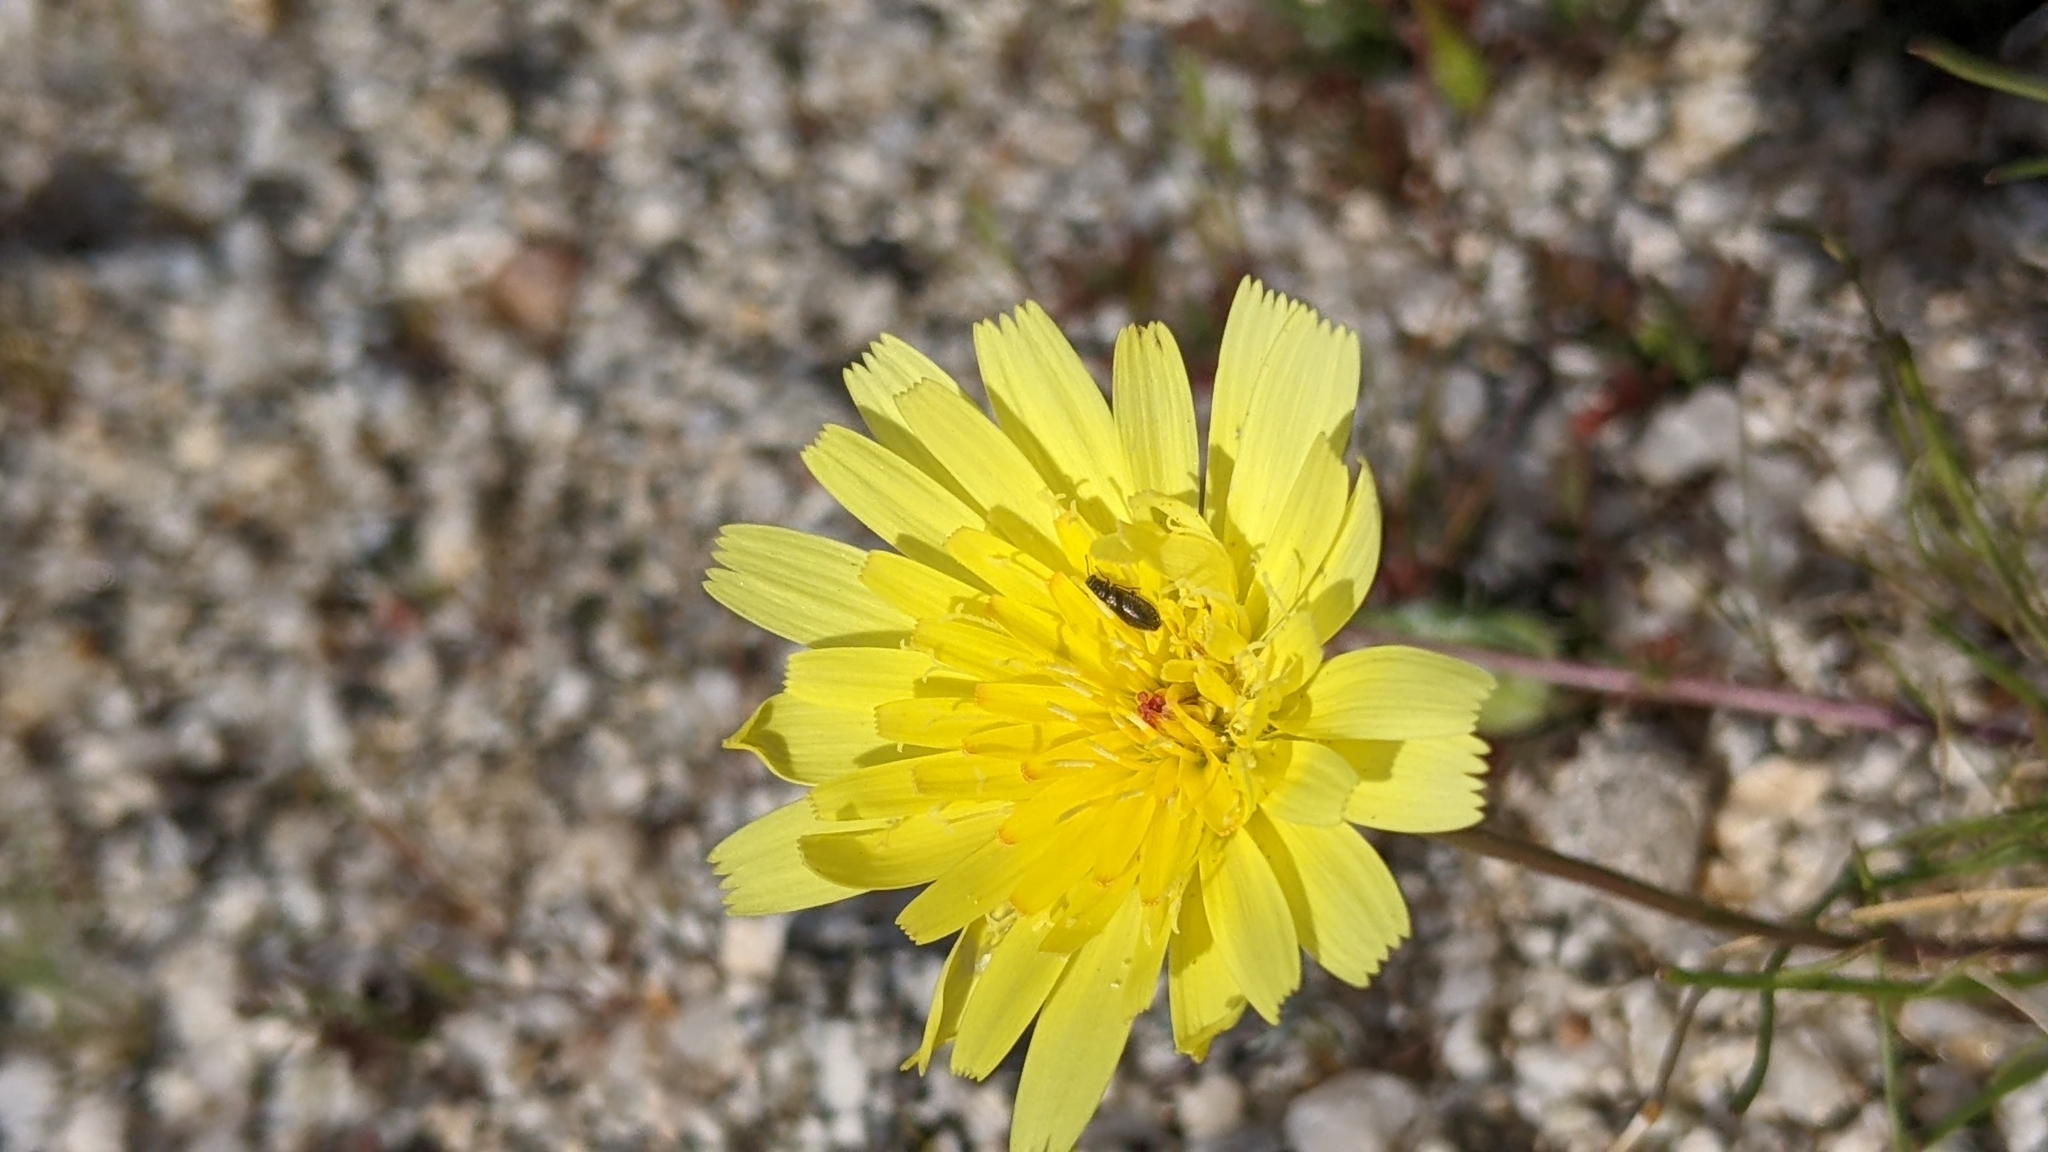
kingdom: Plantae
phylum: Tracheophyta
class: Magnoliopsida
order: Asterales
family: Asteraceae
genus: Malacothrix
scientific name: Malacothrix glabrata
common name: Smooth desert-dandelion
